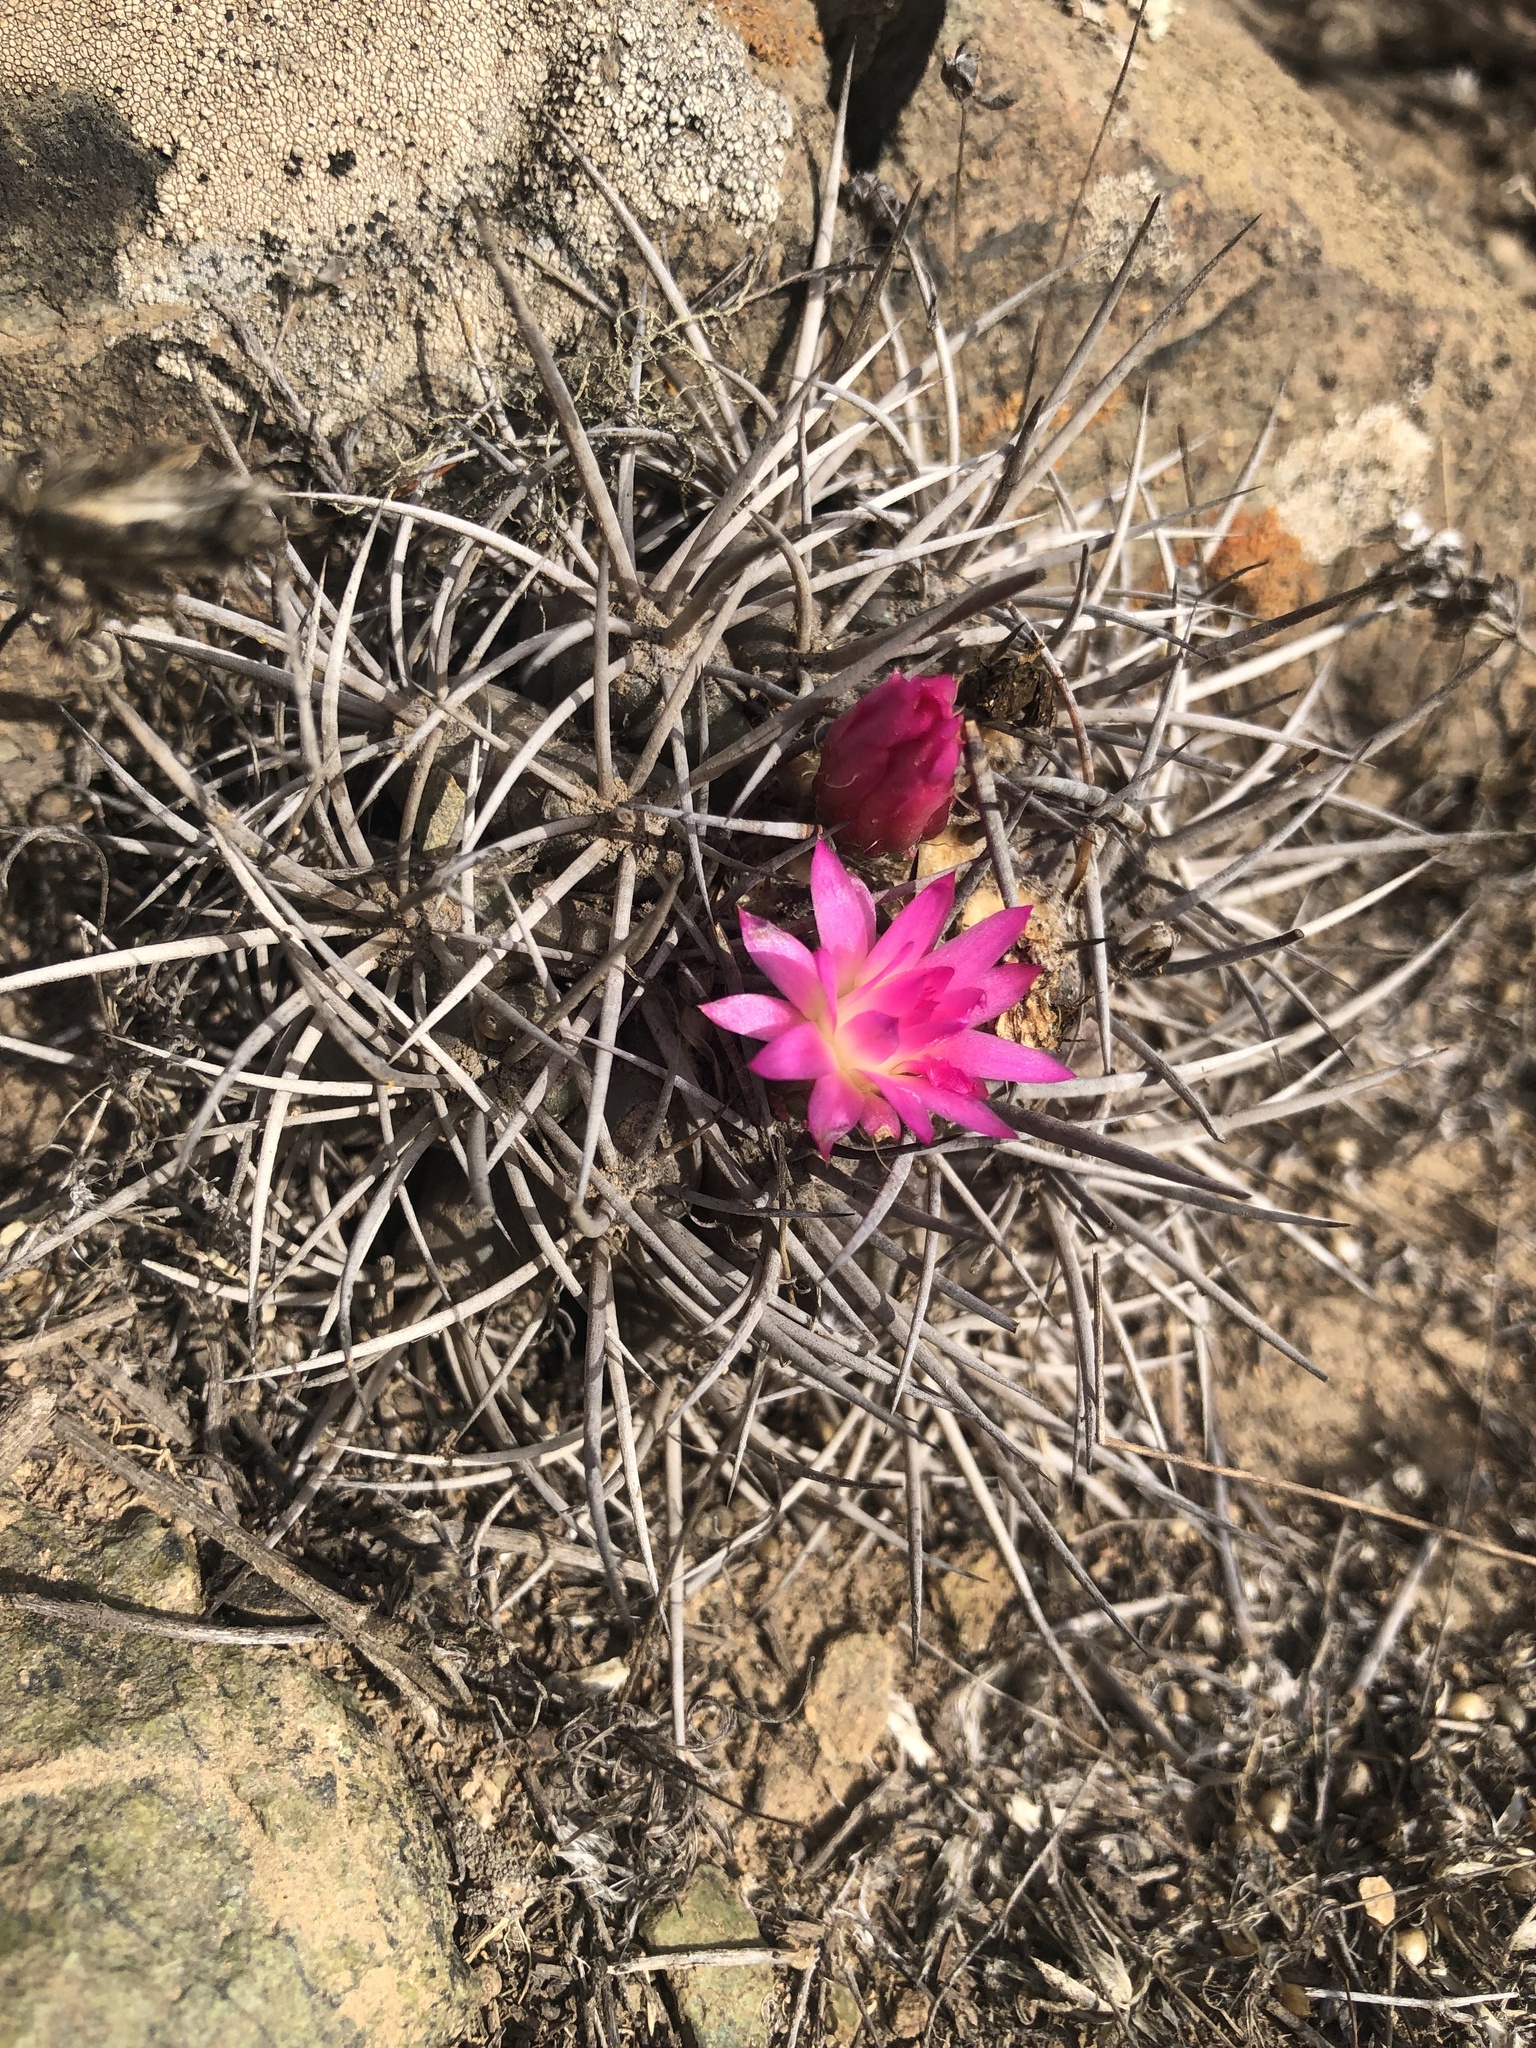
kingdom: Plantae
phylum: Tracheophyta
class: Magnoliopsida
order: Caryophyllales
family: Cactaceae
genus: Eriosyce
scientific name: Eriosyce nigrihorrida
